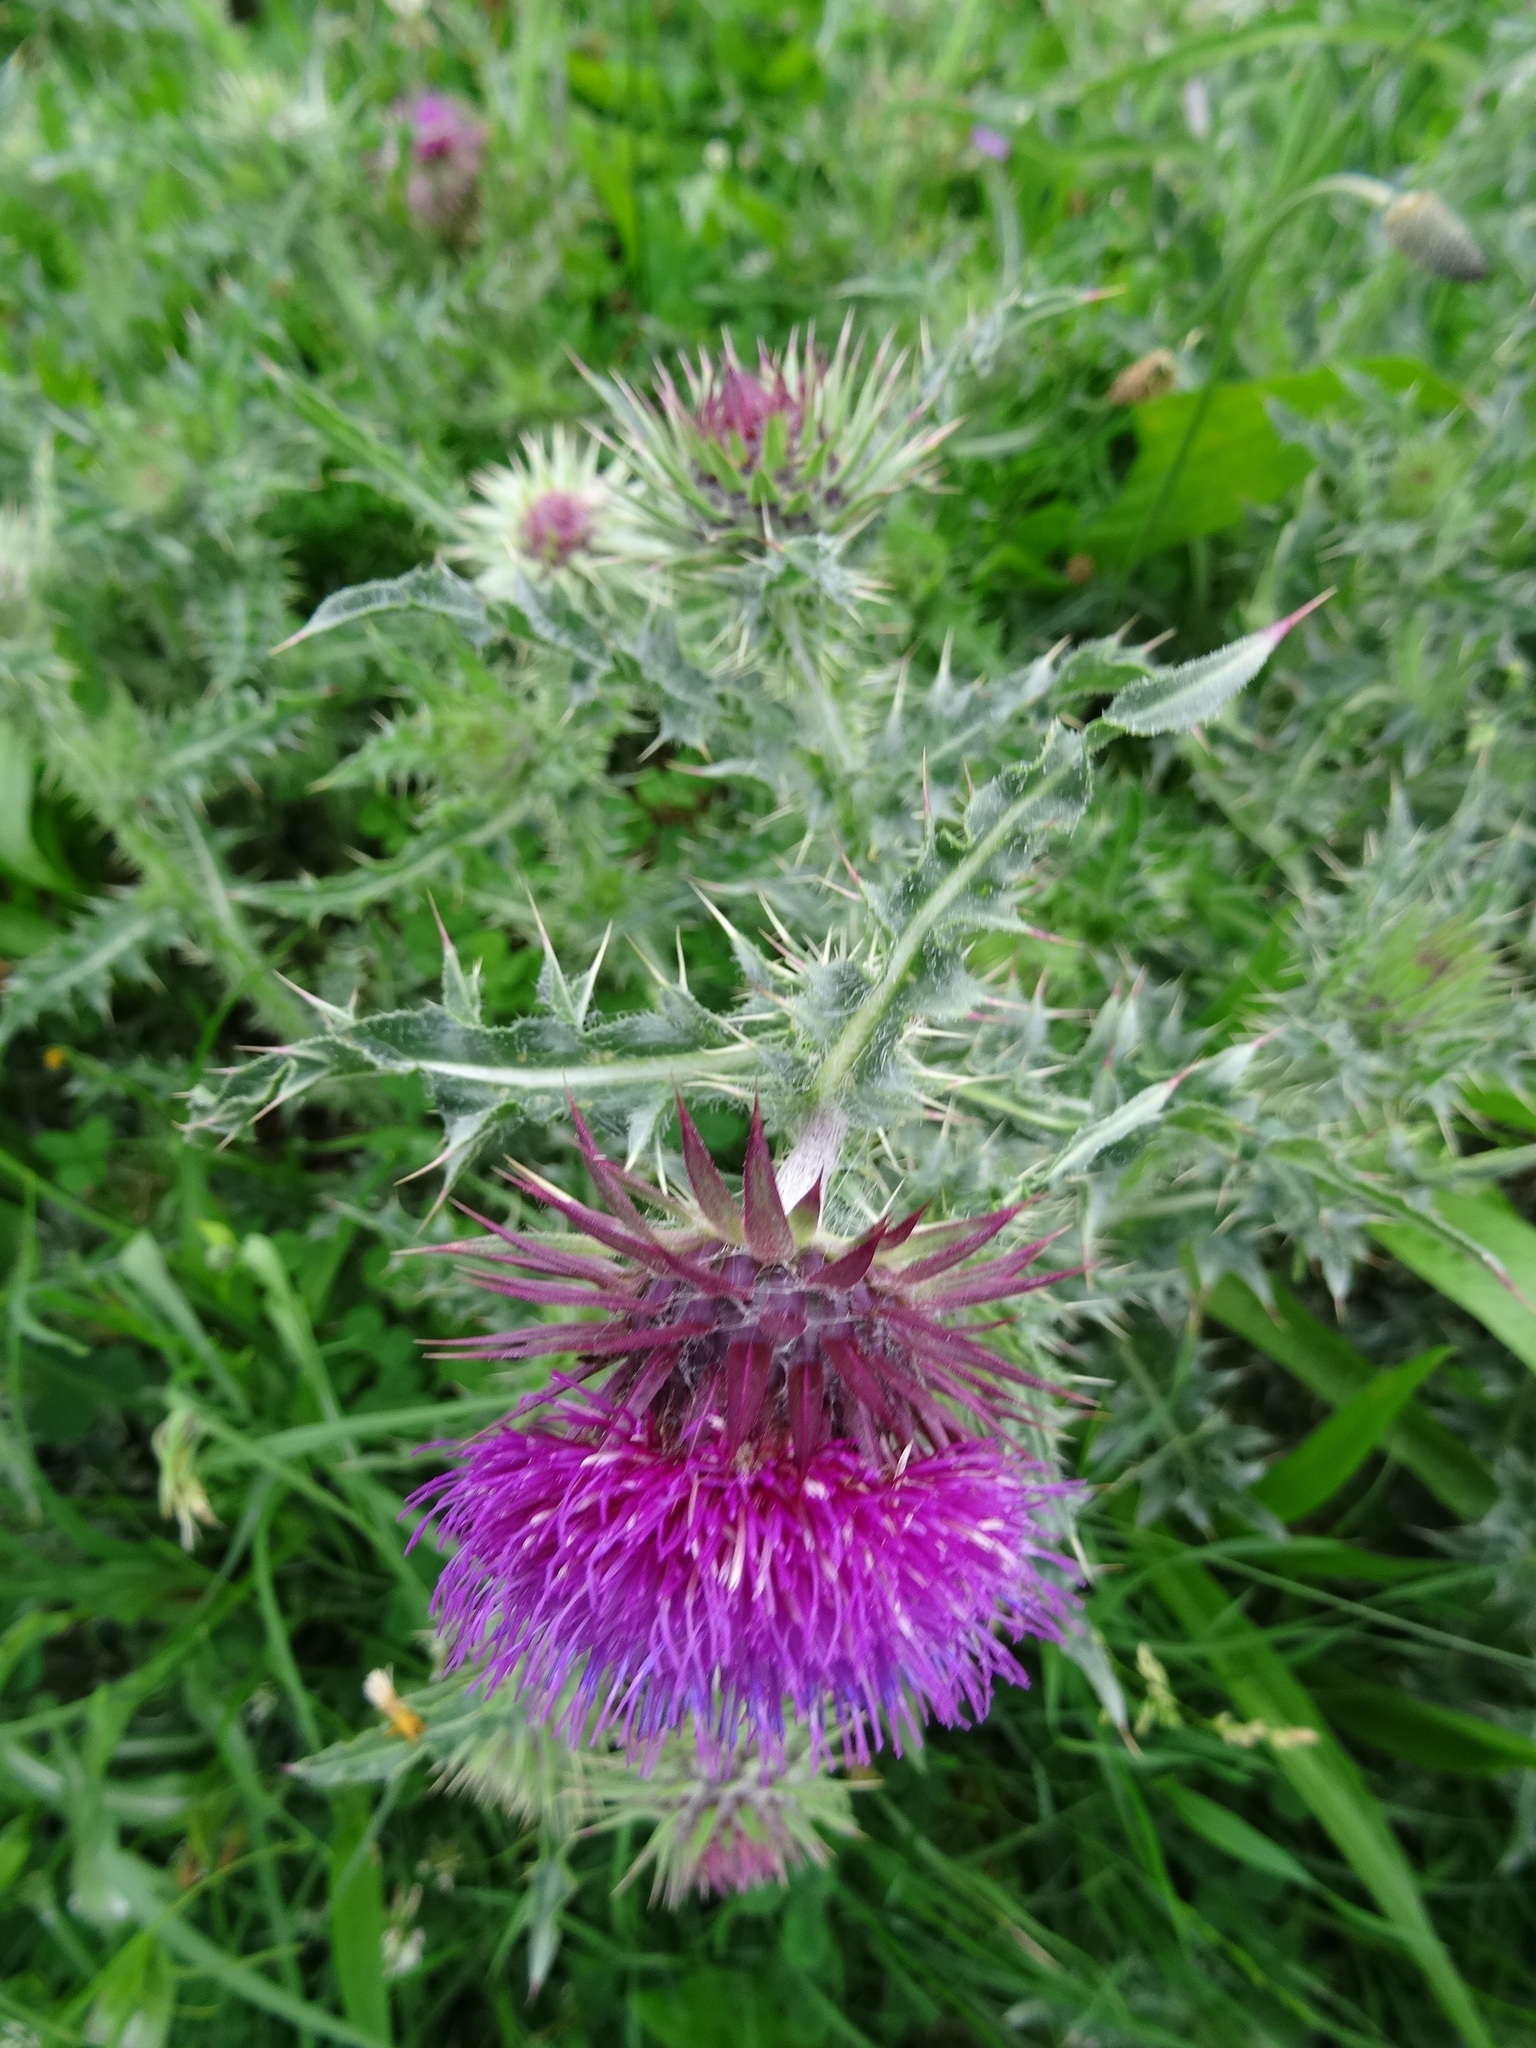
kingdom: Plantae
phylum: Tracheophyta
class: Magnoliopsida
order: Asterales
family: Asteraceae
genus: Carduus
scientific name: Carduus nutans
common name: Musk thistle
